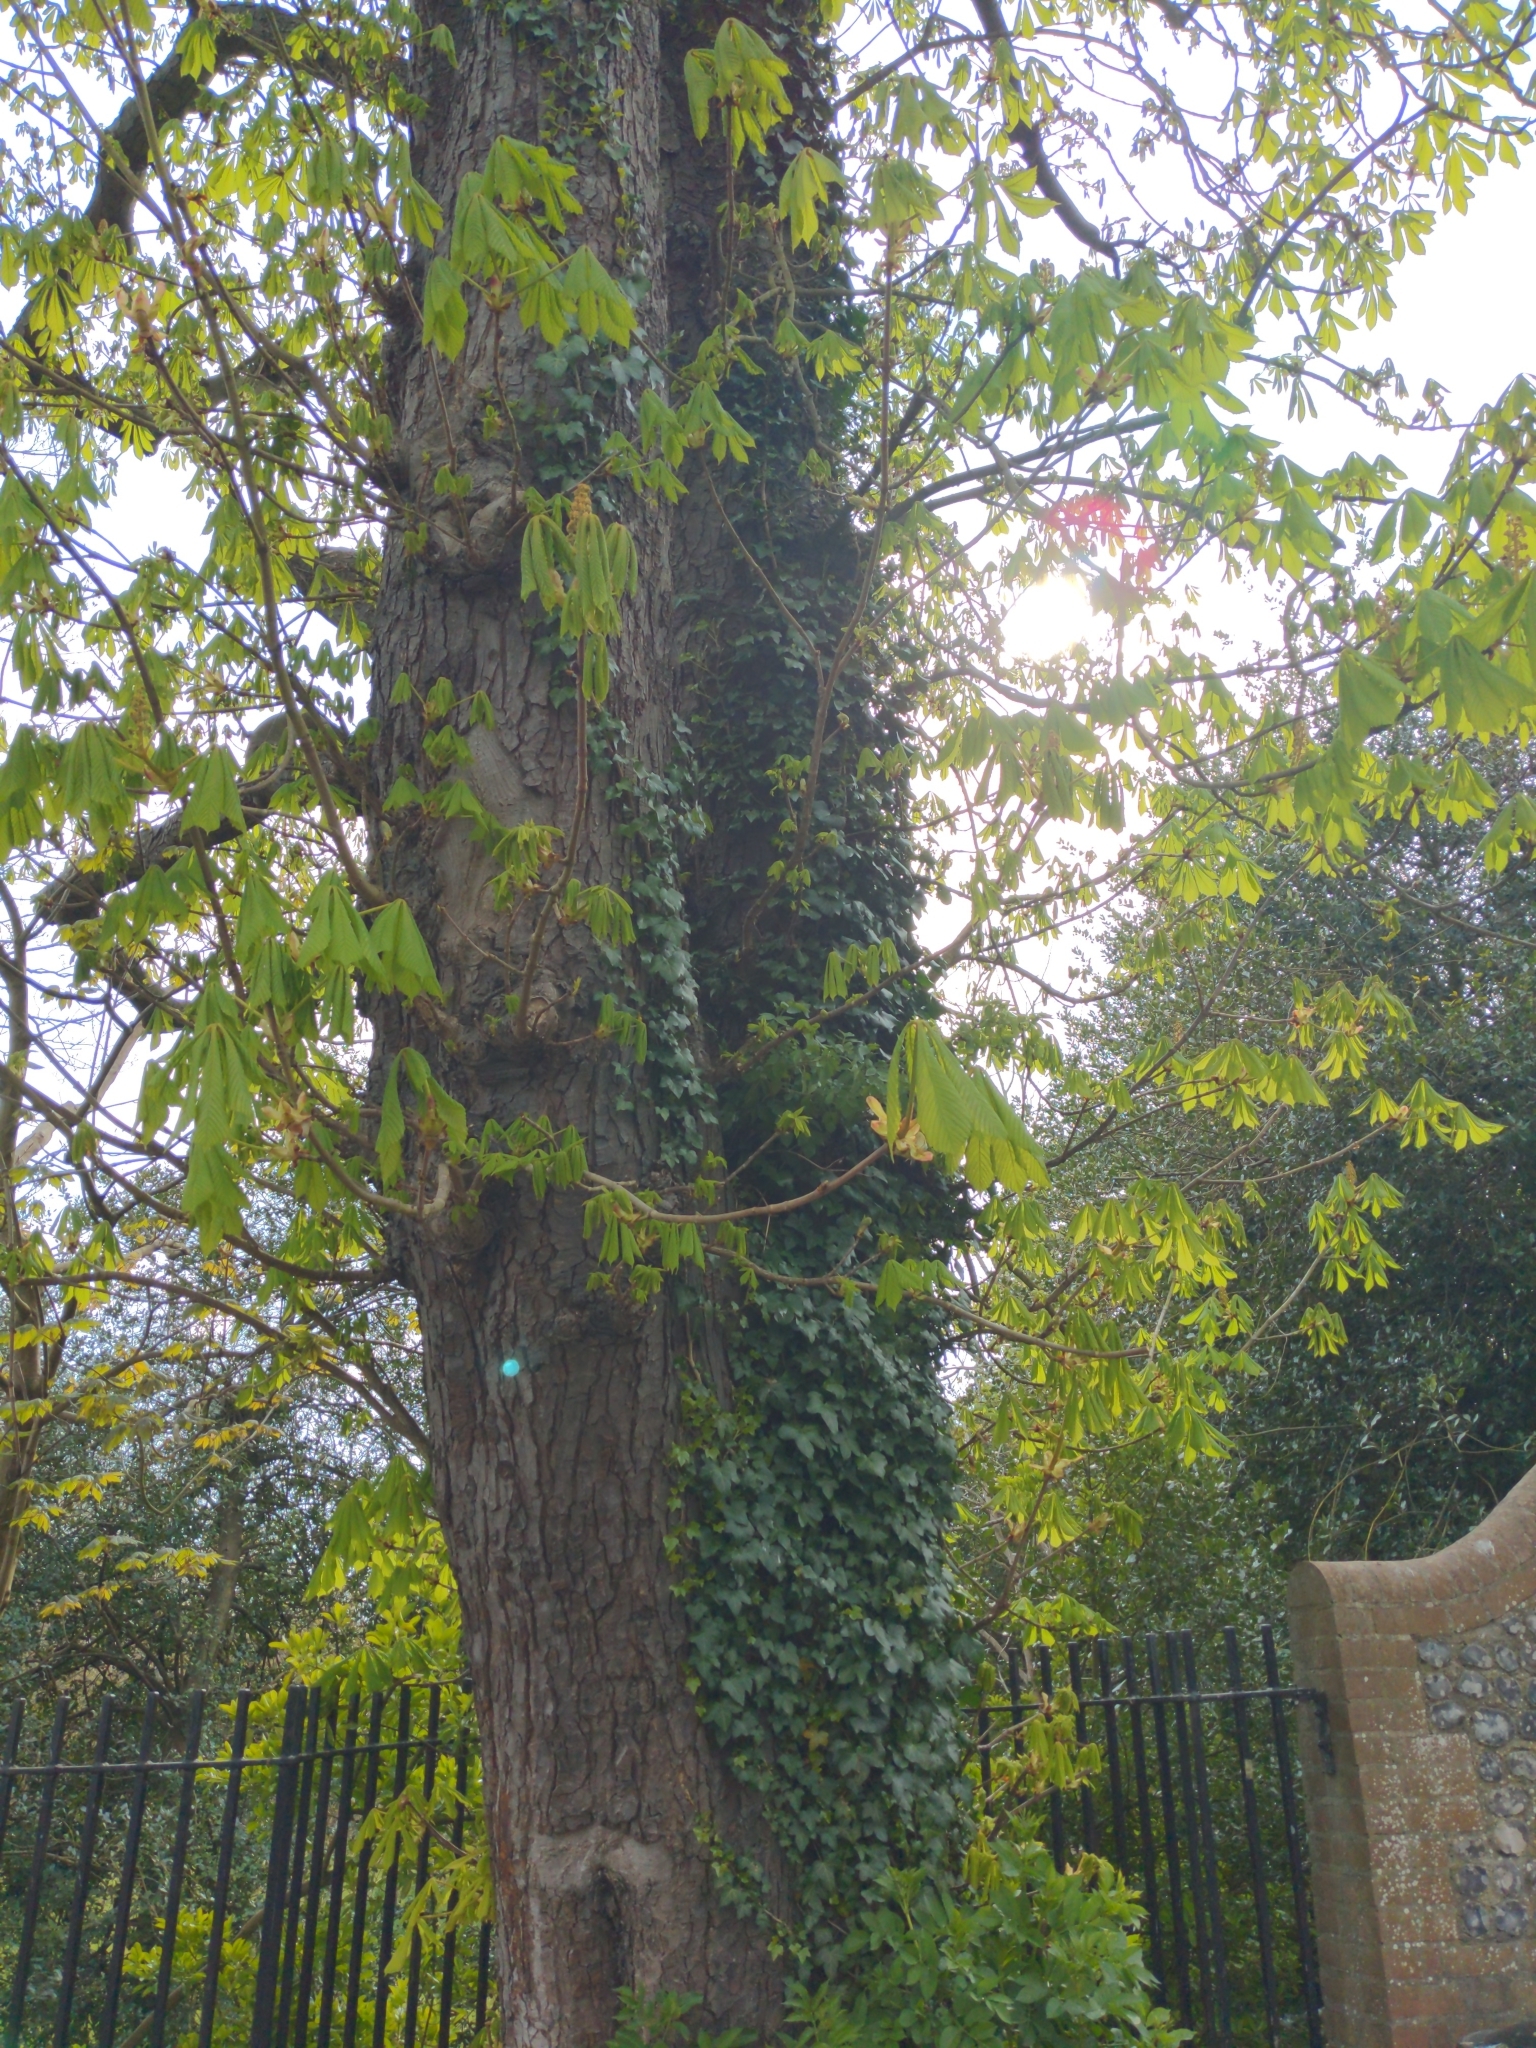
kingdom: Plantae
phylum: Tracheophyta
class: Magnoliopsida
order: Sapindales
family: Sapindaceae
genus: Aesculus
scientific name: Aesculus hippocastanum
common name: Horse-chestnut
